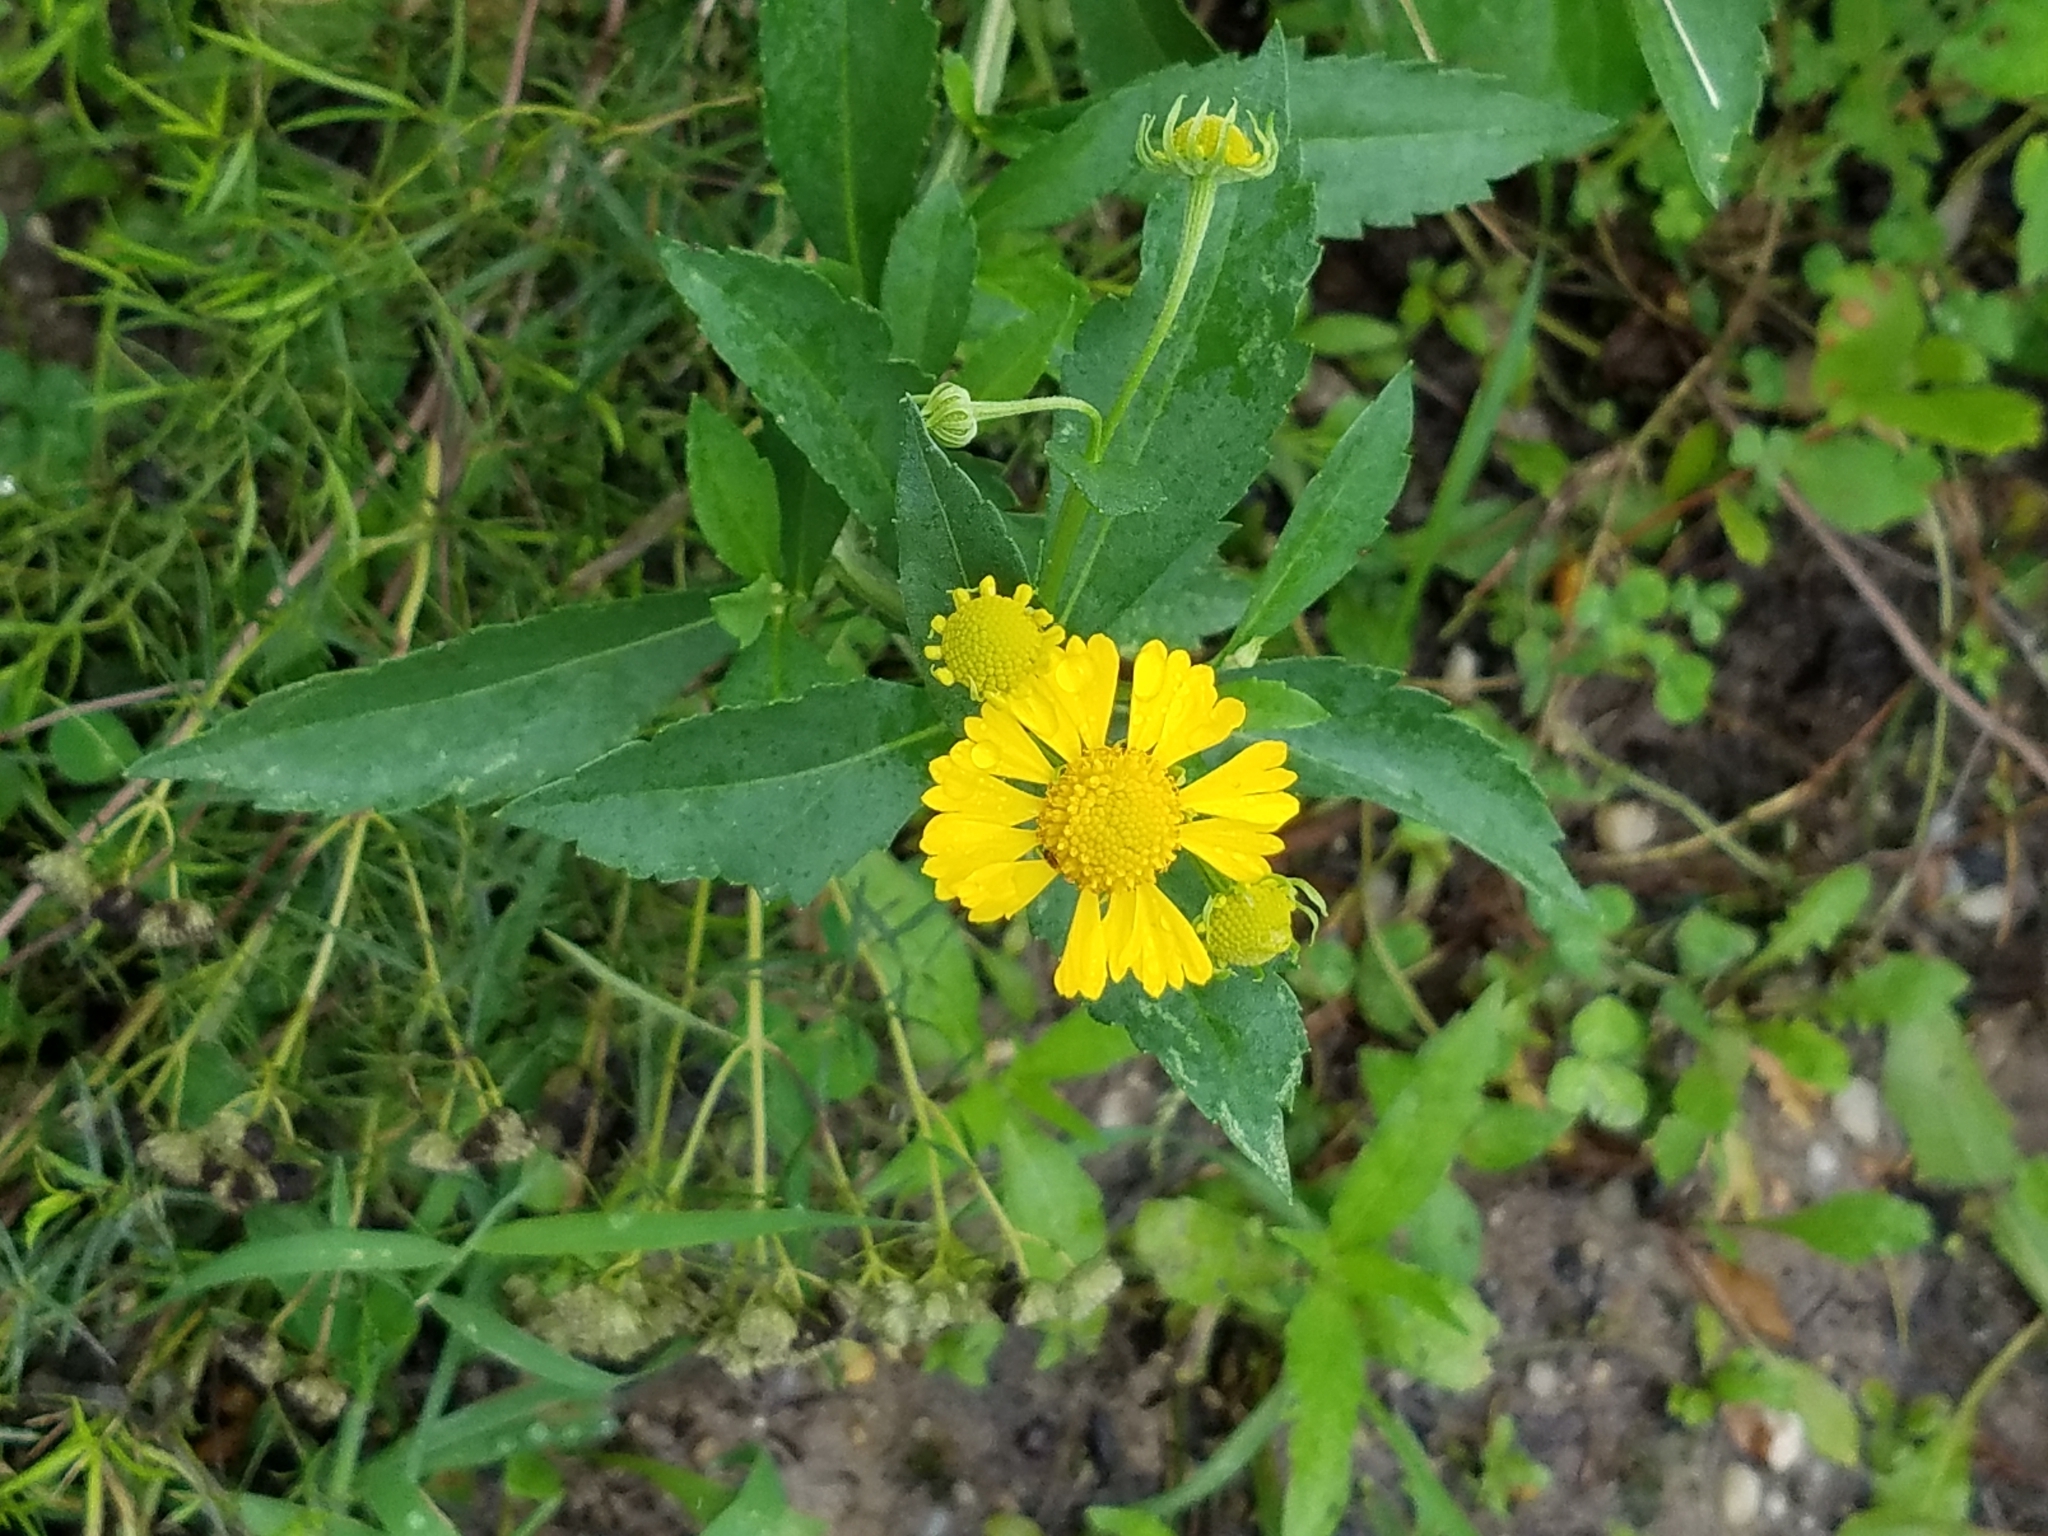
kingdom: Plantae
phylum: Tracheophyta
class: Magnoliopsida
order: Asterales
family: Asteraceae
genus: Helenium
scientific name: Helenium autumnale
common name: Sneezeweed
